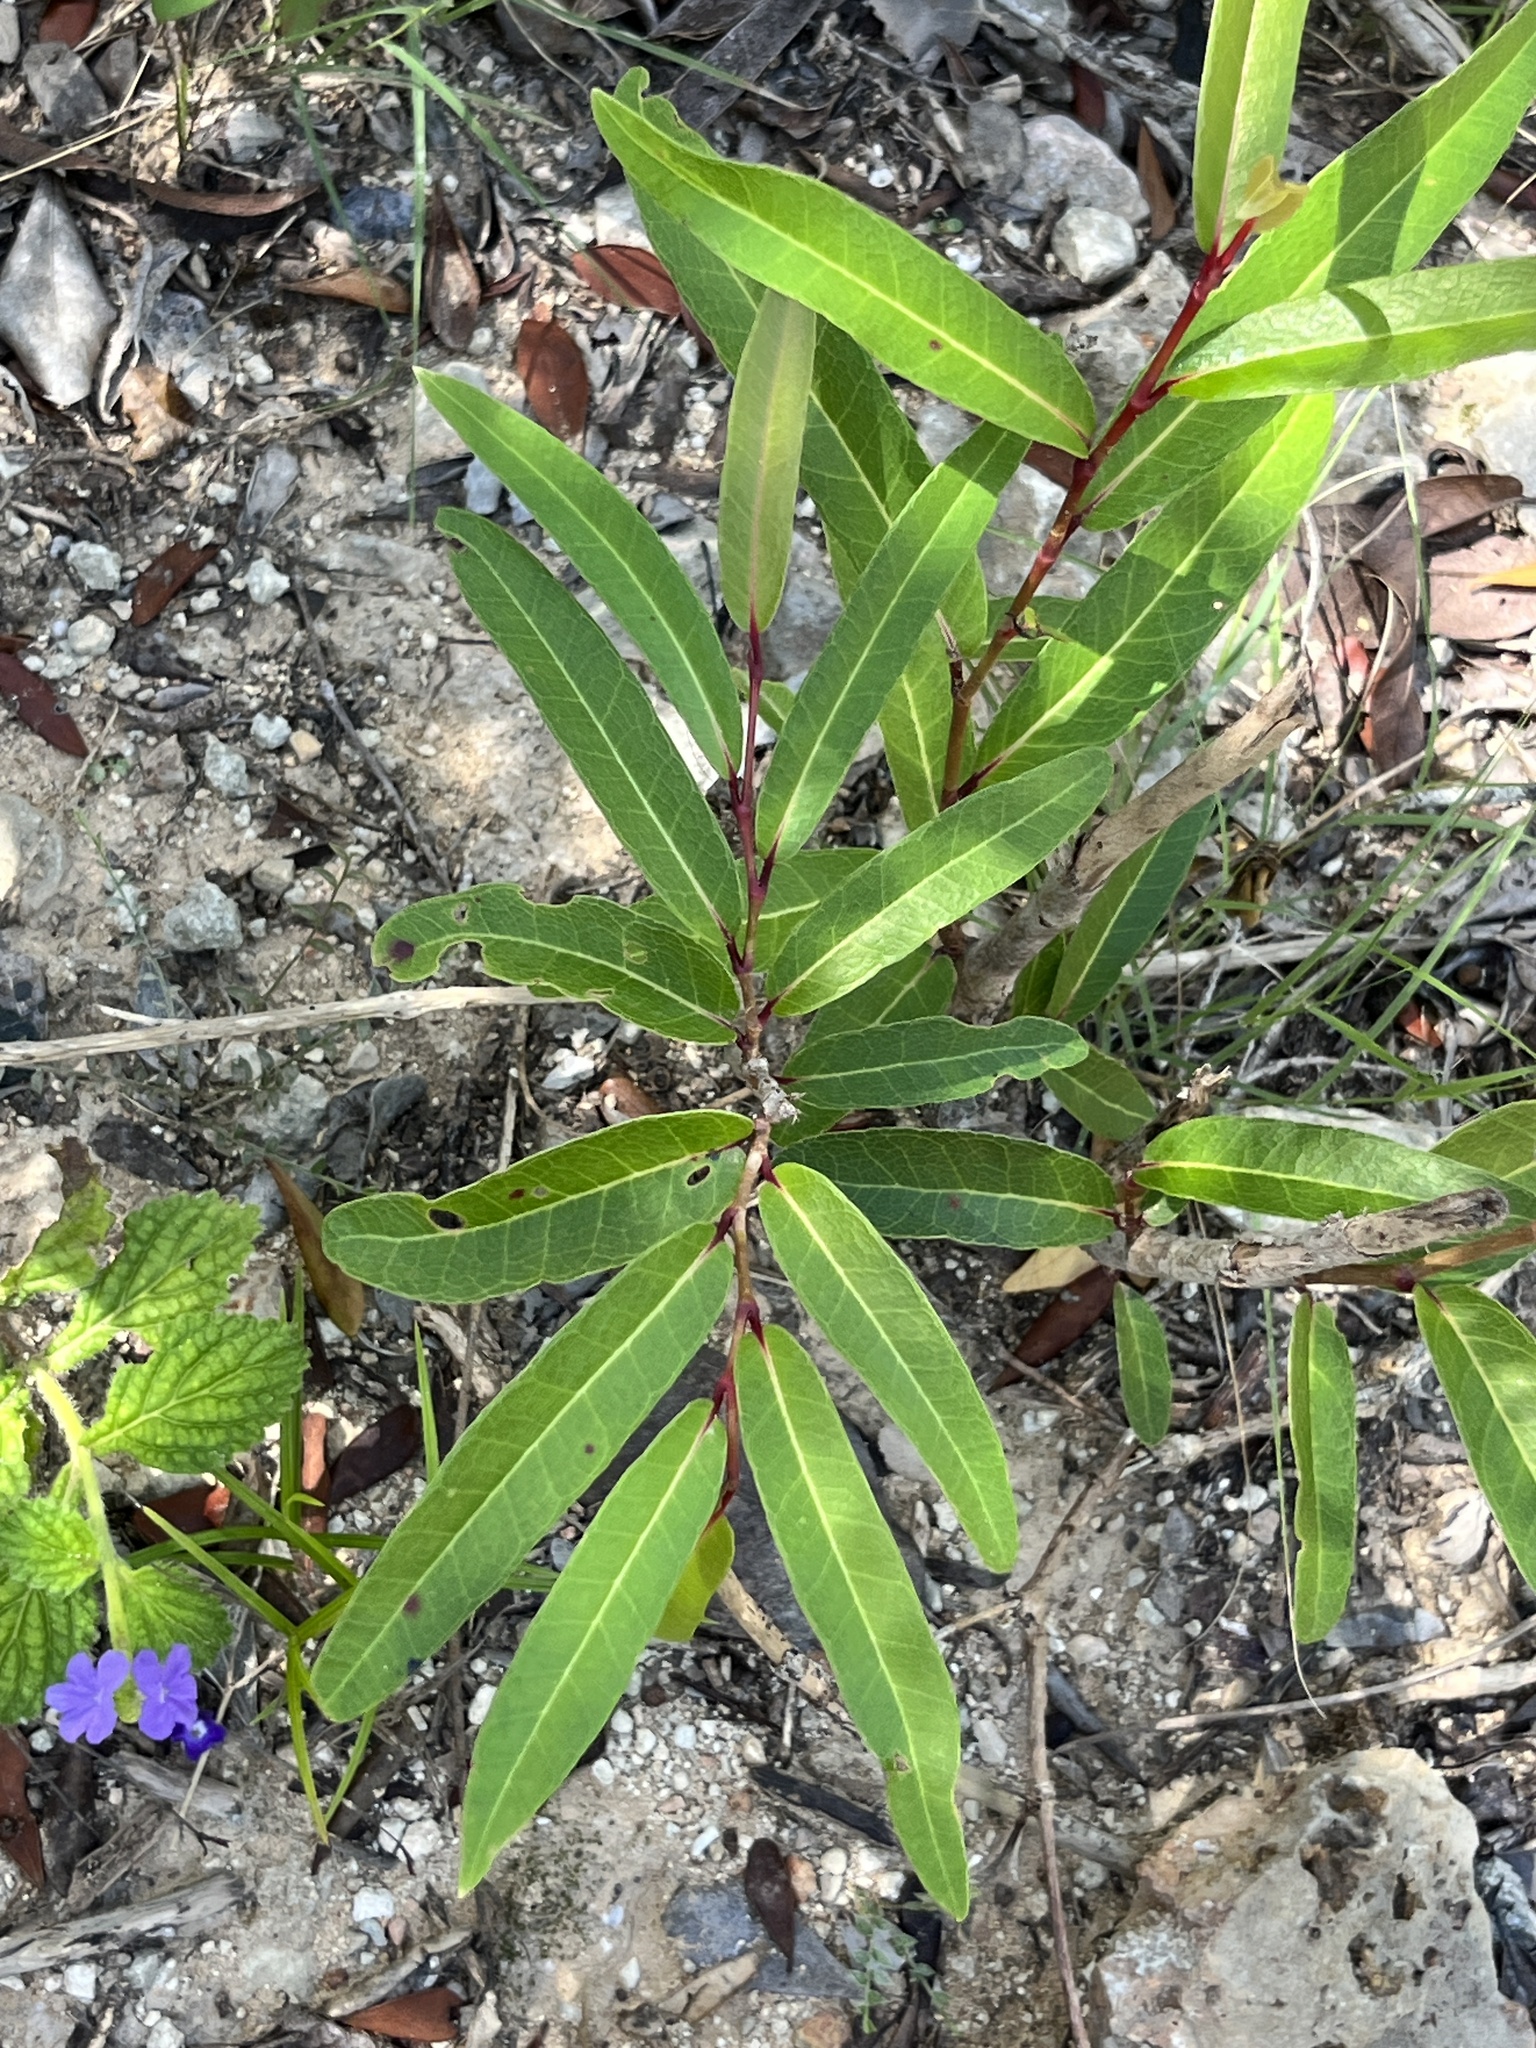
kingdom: Plantae
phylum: Tracheophyta
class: Magnoliopsida
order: Brassicales
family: Capparaceae
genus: Cynophalla
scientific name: Cynophalla flexuosa
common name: Capertree
